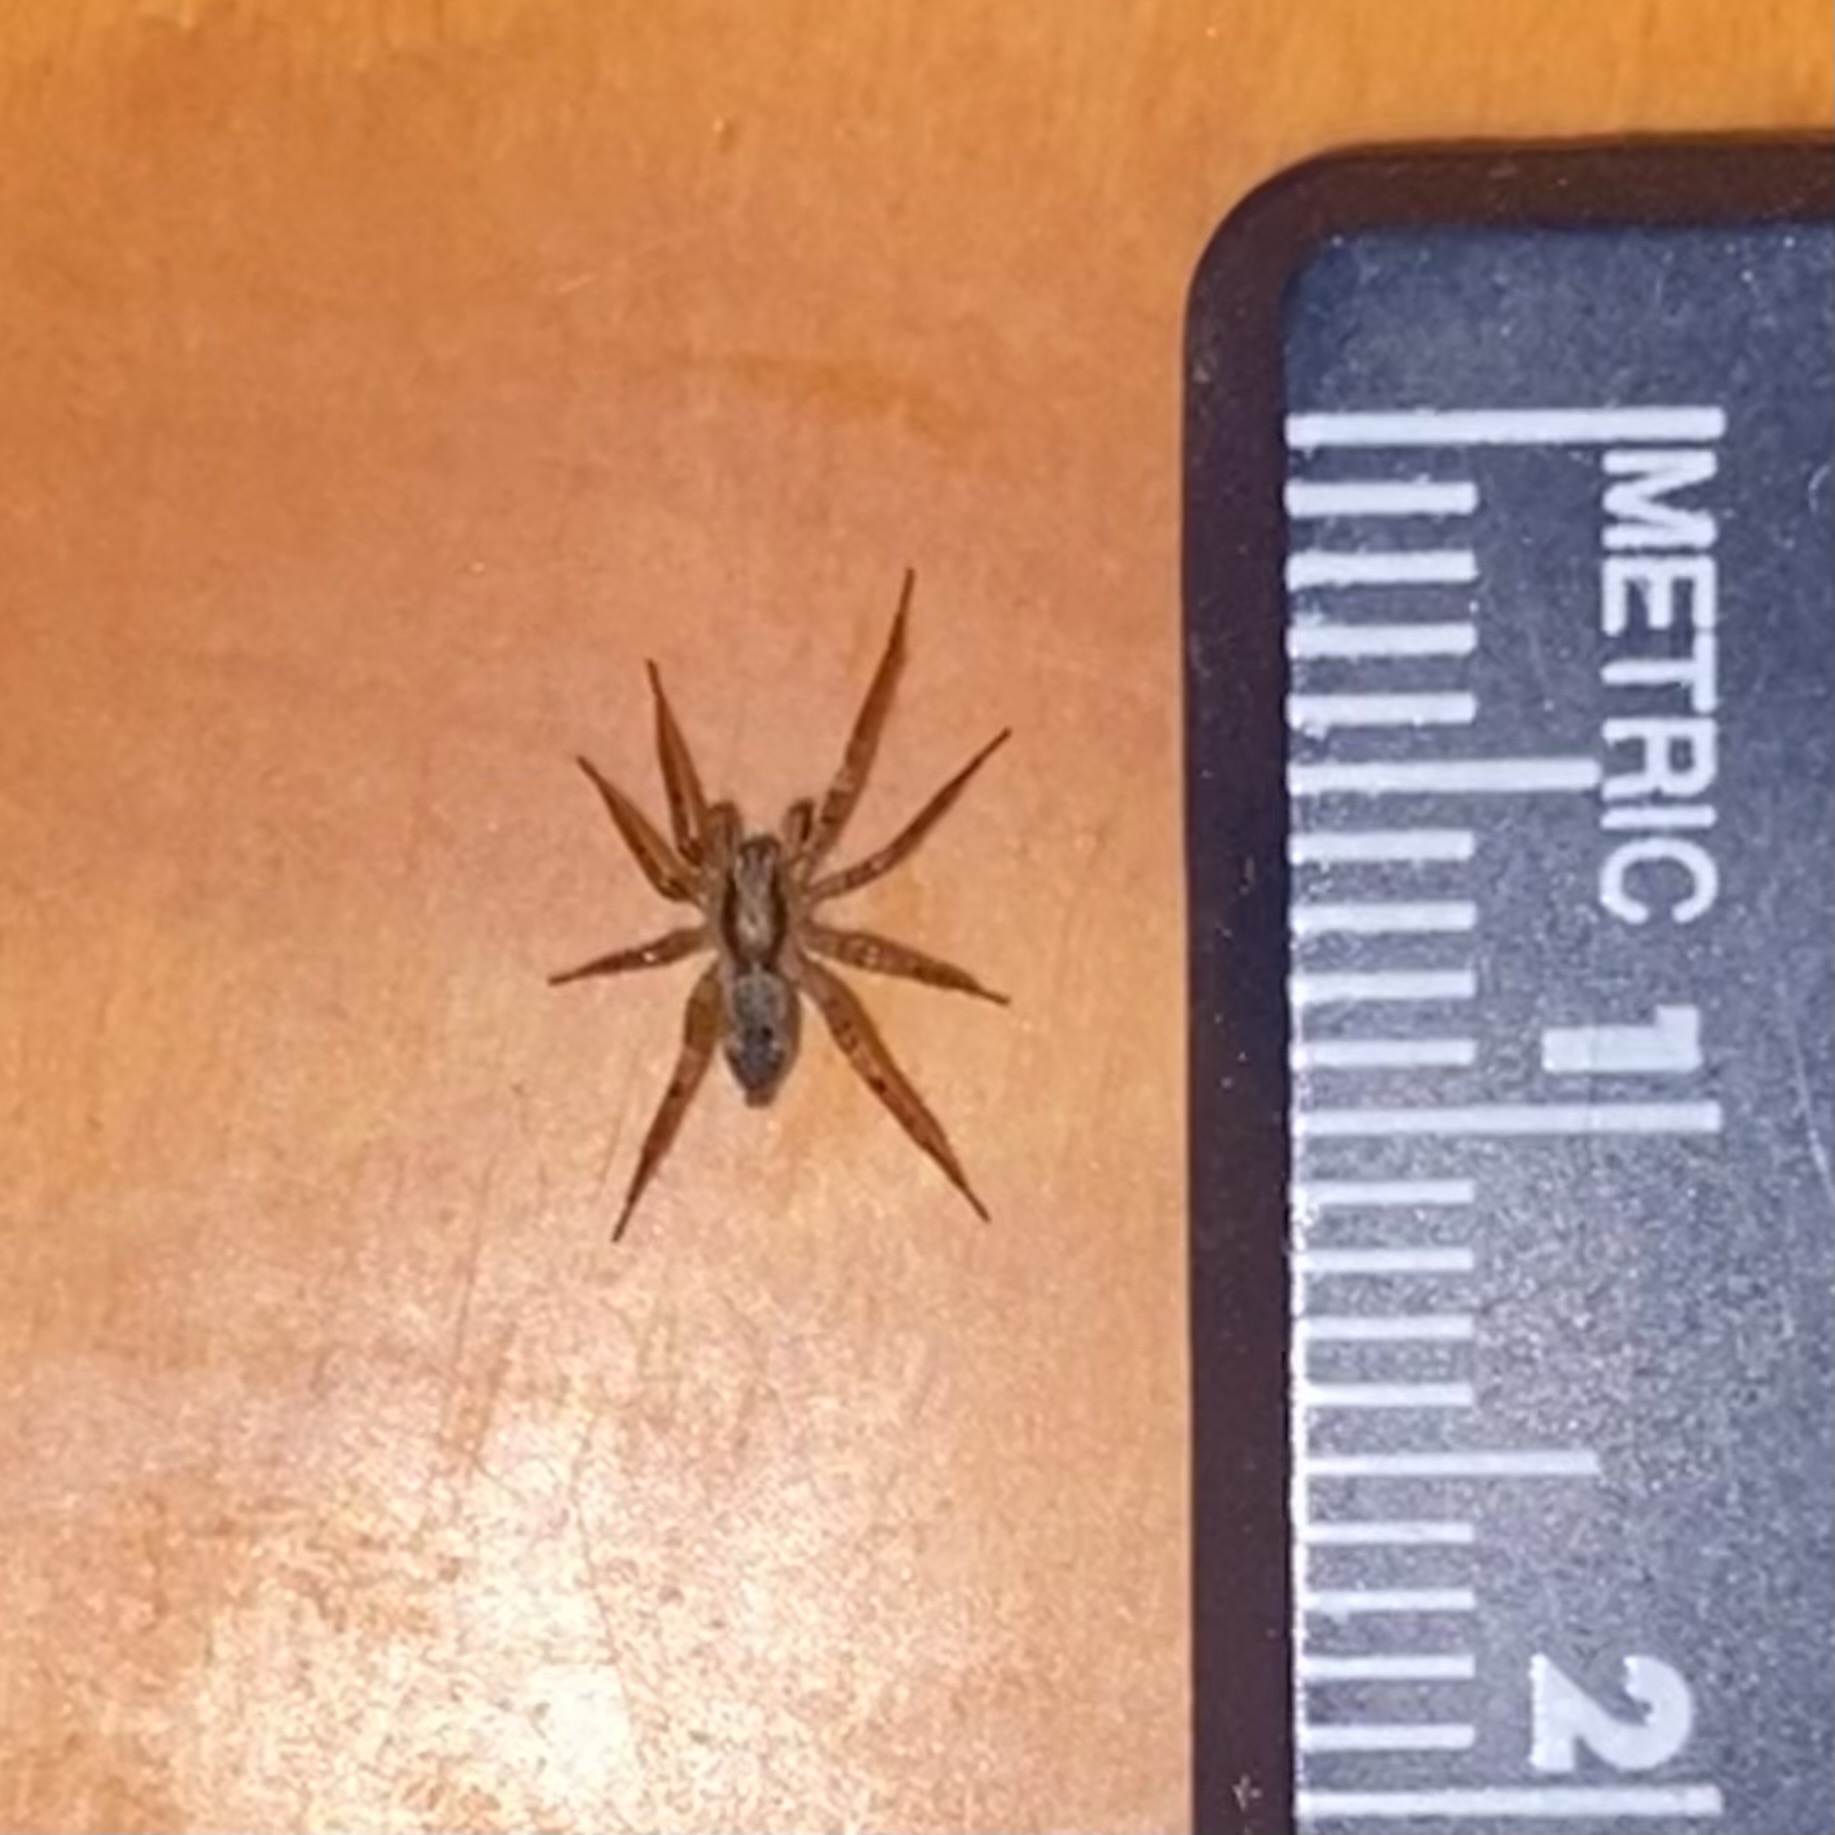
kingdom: Animalia
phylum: Arthropoda
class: Arachnida
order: Araneae
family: Anyphaenidae
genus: Anyphaena
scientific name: Anyphaena
